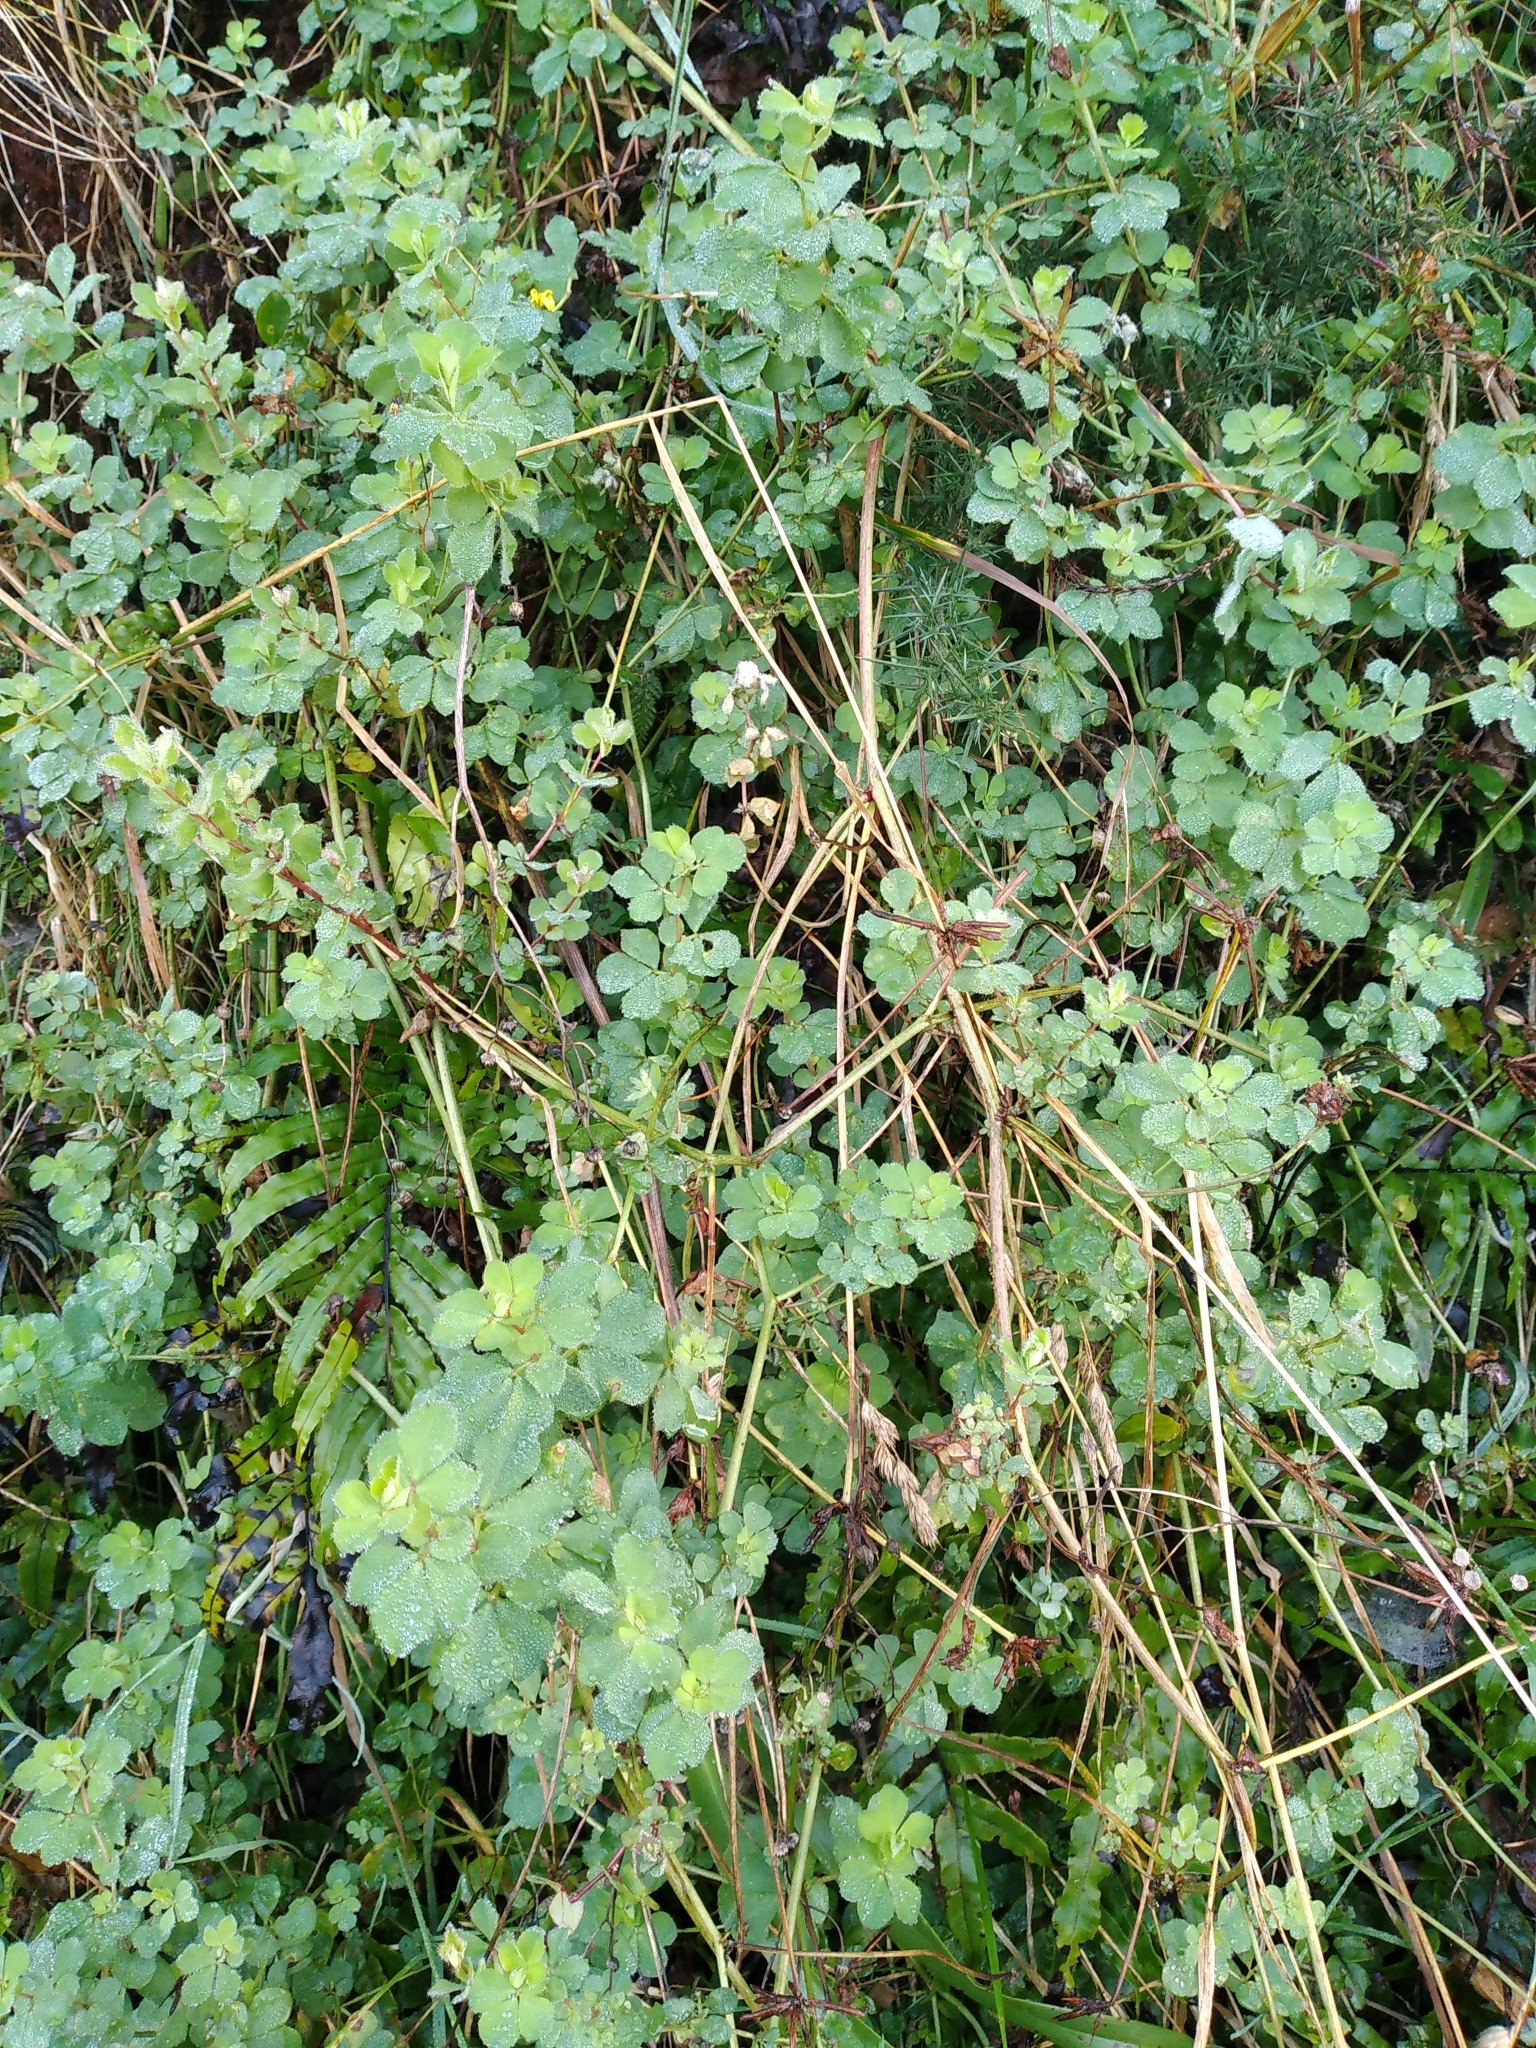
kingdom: Plantae
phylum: Tracheophyta
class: Magnoliopsida
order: Fabales
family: Fabaceae
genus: Lotus
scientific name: Lotus pedunculatus
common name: Greater birdsfoot-trefoil
